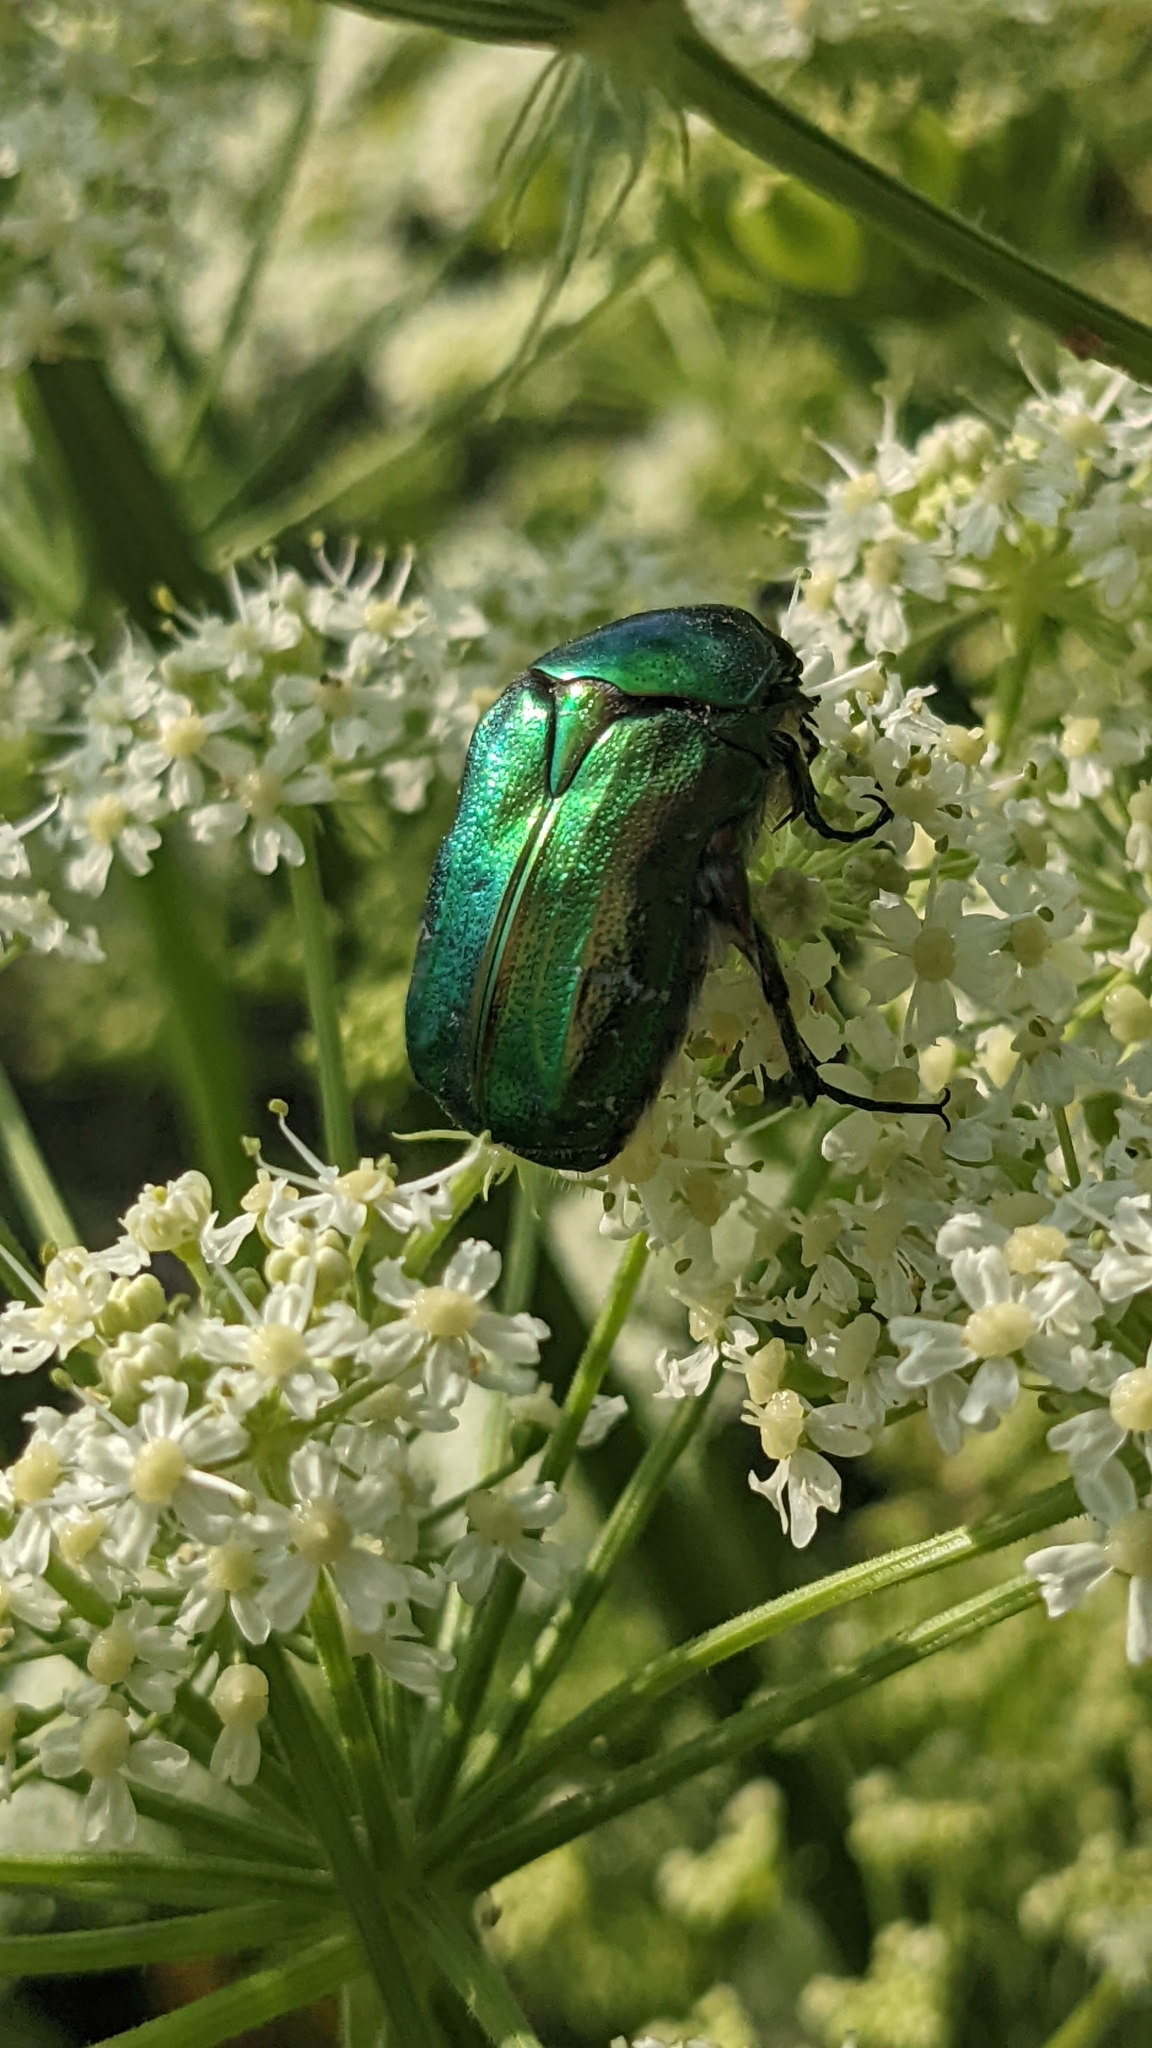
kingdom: Animalia
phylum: Arthropoda
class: Insecta
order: Coleoptera
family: Scarabaeidae
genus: Cetonia
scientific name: Cetonia aurata
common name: Rose chafer
